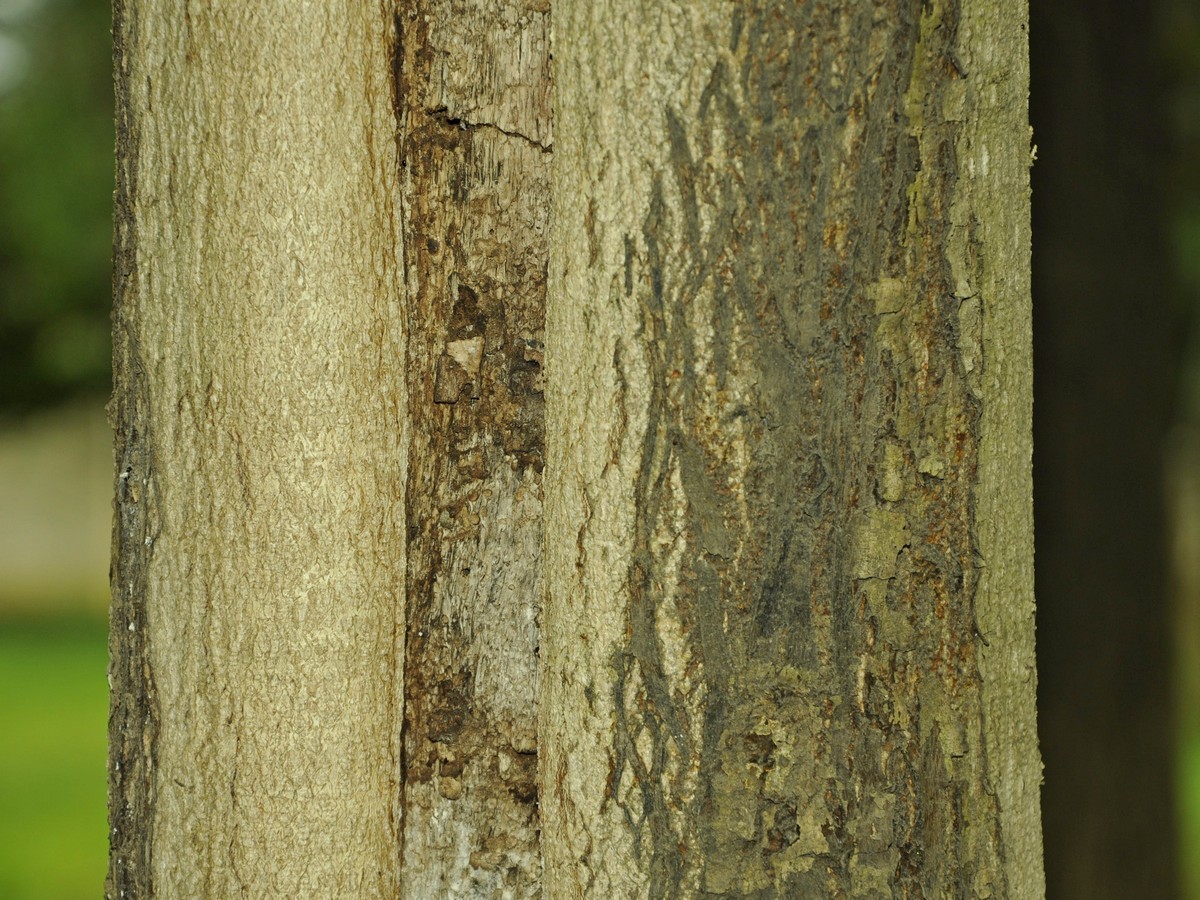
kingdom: Plantae
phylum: Tracheophyta
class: Magnoliopsida
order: Fabales
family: Fabaceae
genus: Senna
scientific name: Senna siamea
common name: Siamese cassia
